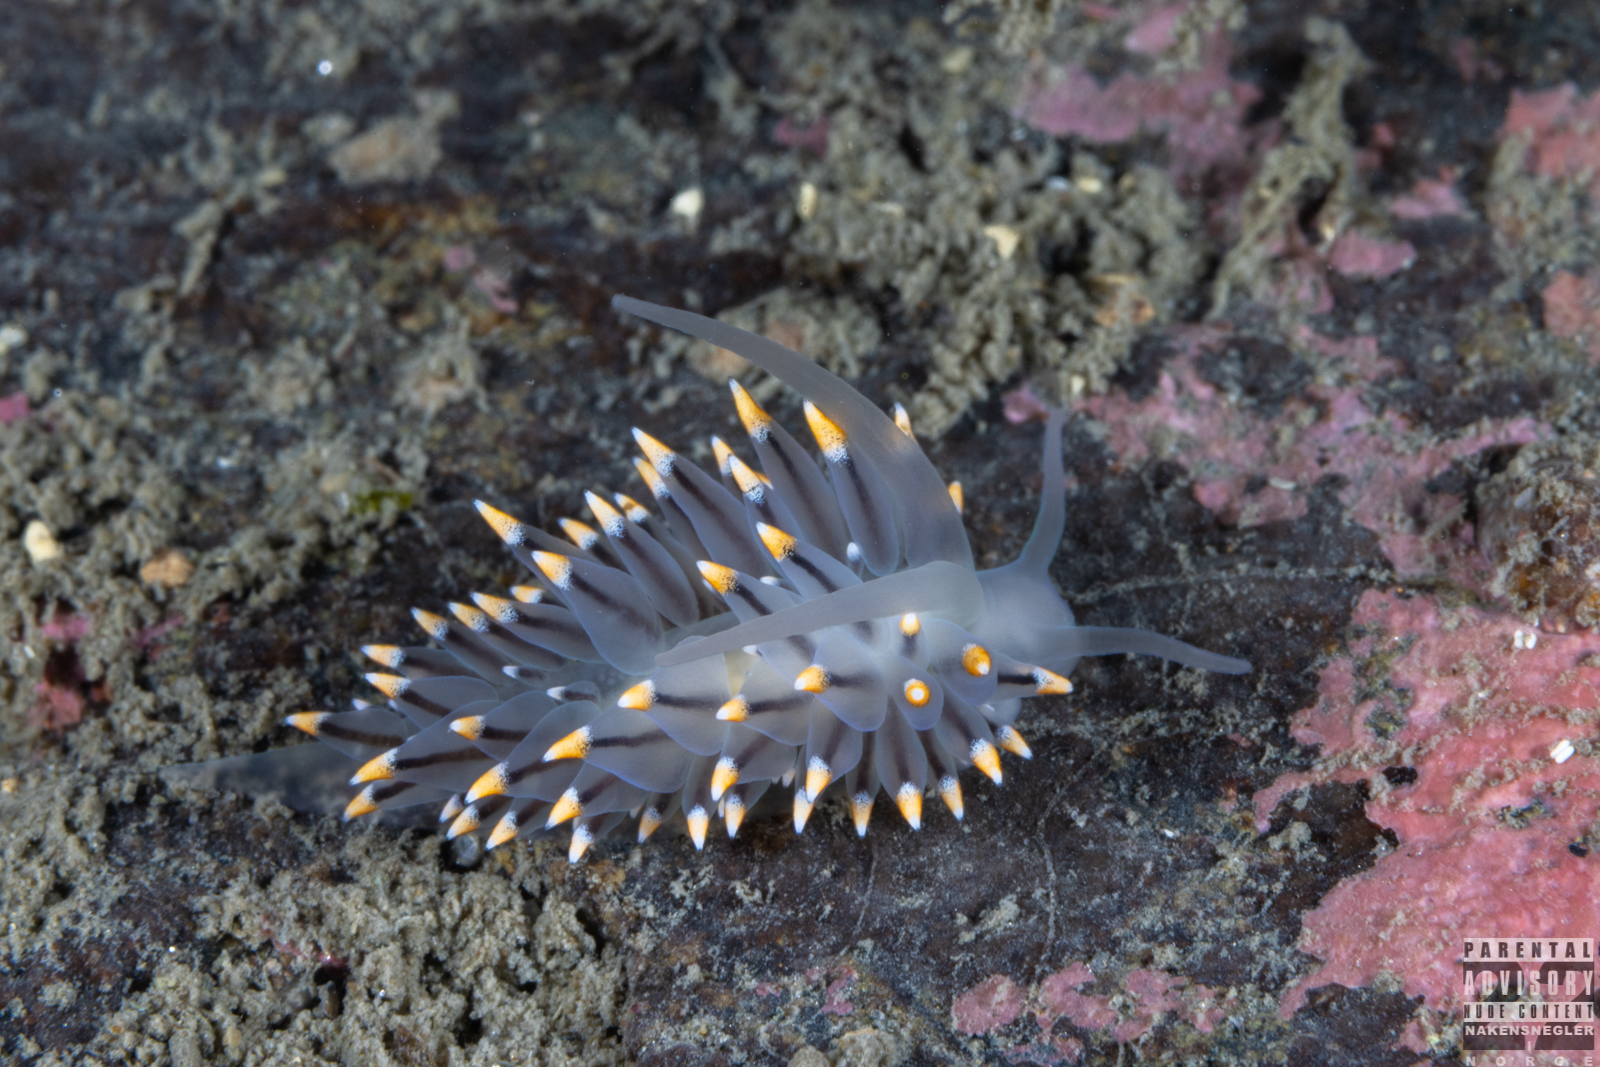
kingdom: Animalia
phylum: Mollusca
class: Gastropoda
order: Nudibranchia
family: Eubranchidae
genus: Eubranchus
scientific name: Eubranchus tricolor
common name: Painted balloon aeolis
